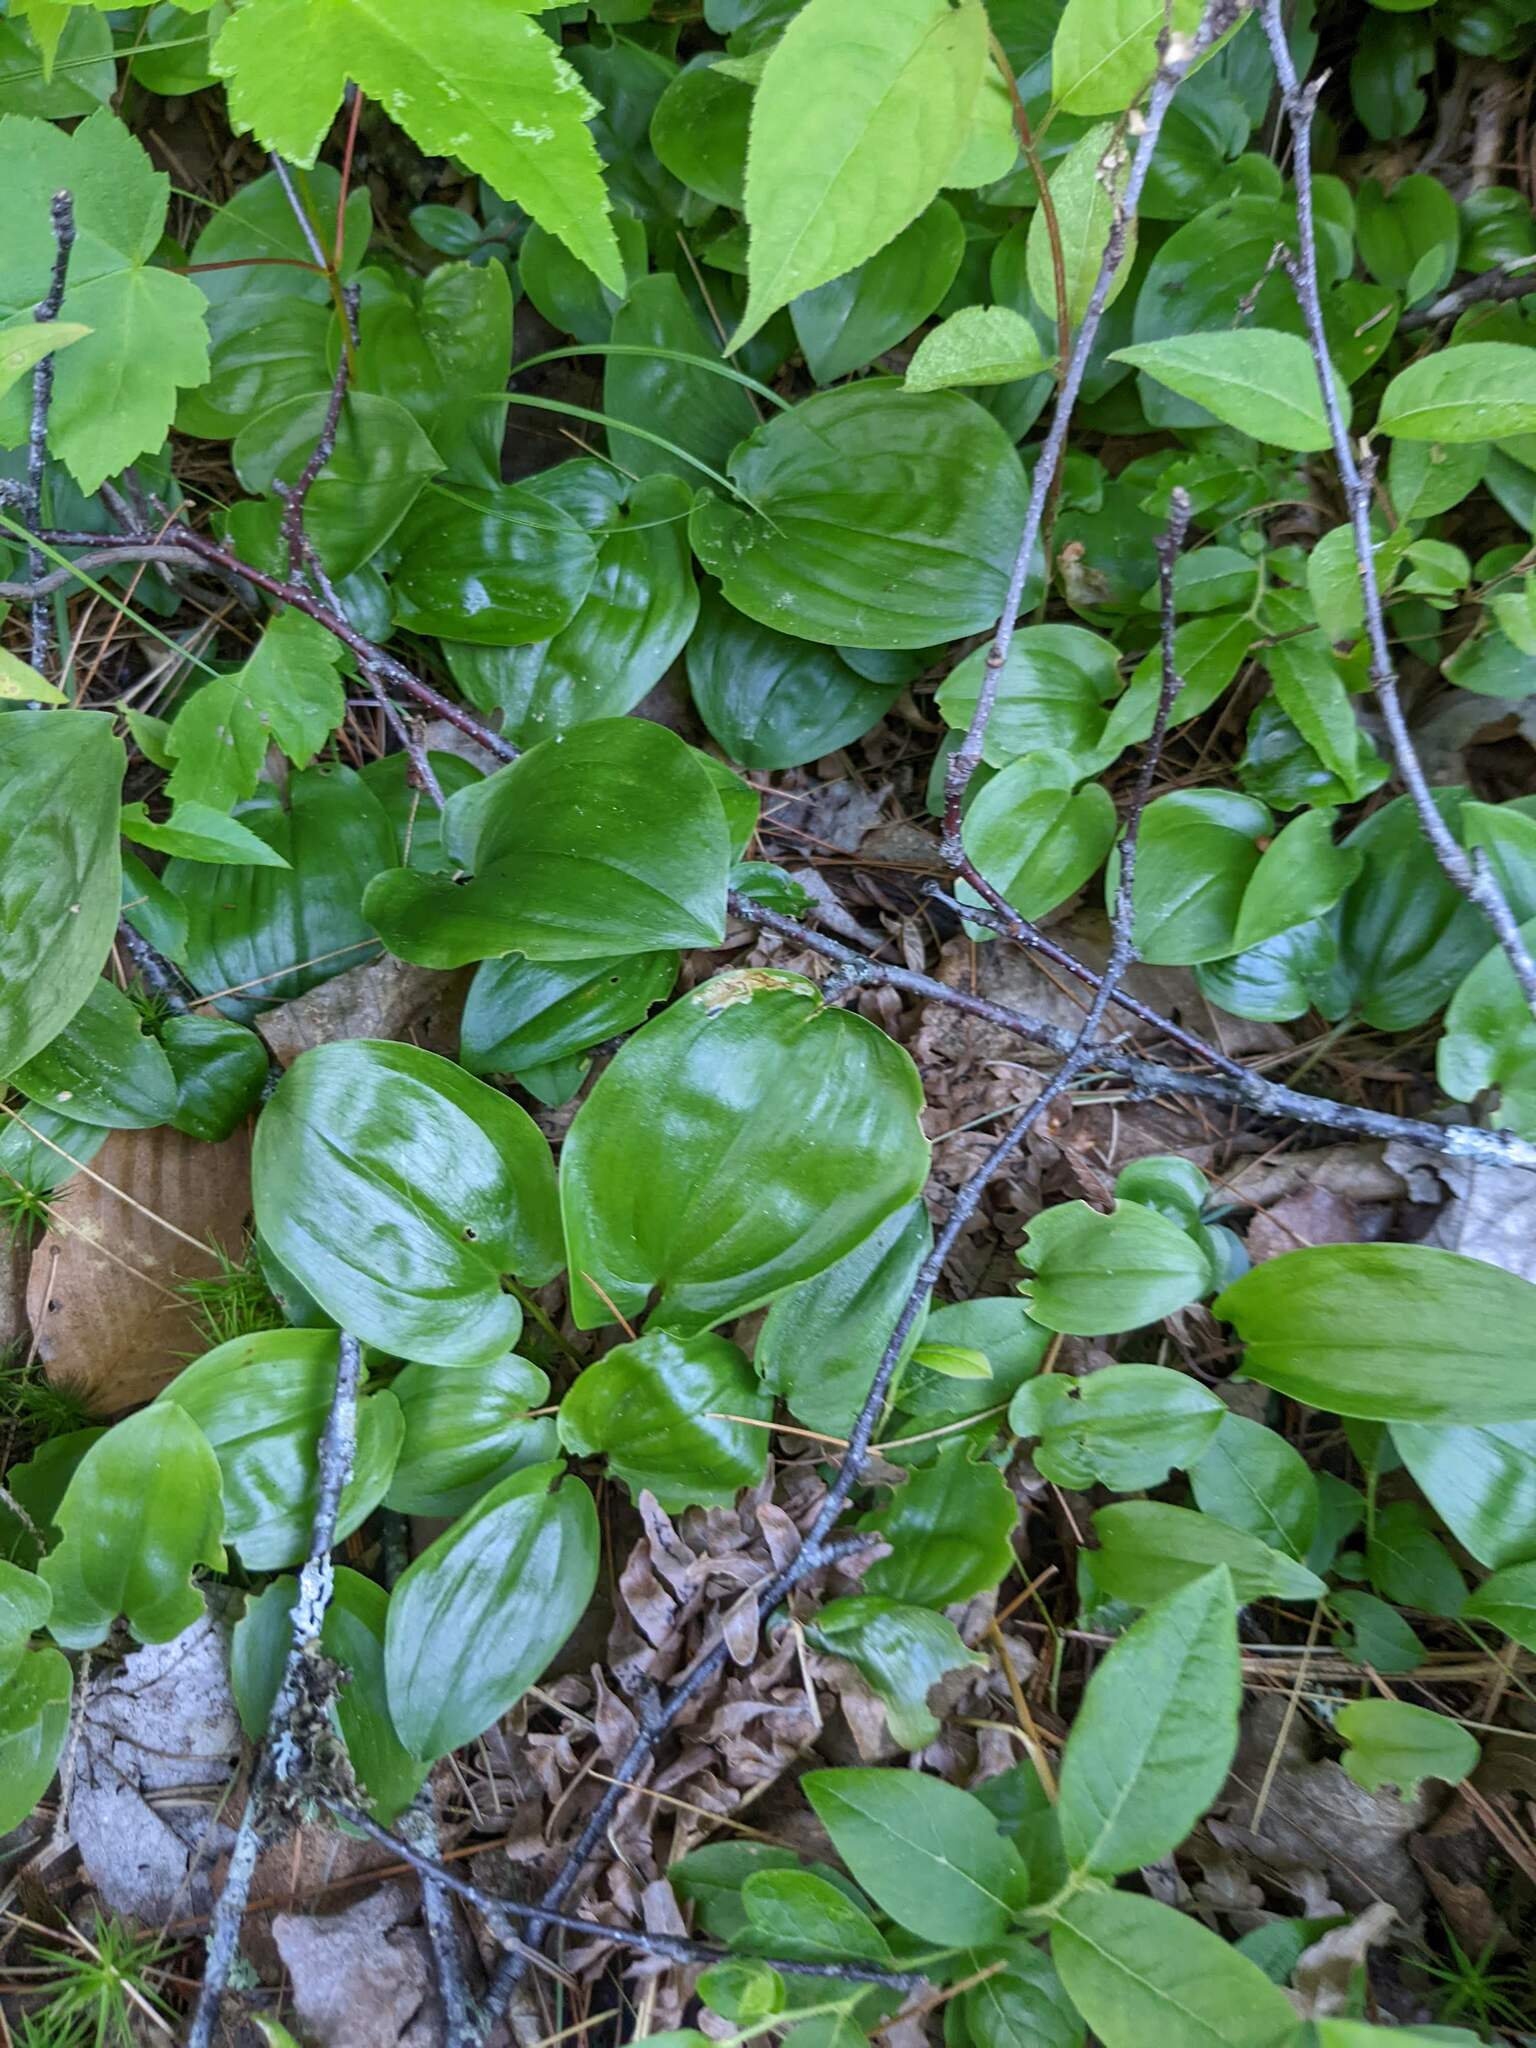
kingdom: Plantae
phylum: Tracheophyta
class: Liliopsida
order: Asparagales
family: Asparagaceae
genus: Maianthemum
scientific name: Maianthemum canadense
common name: False lily-of-the-valley
